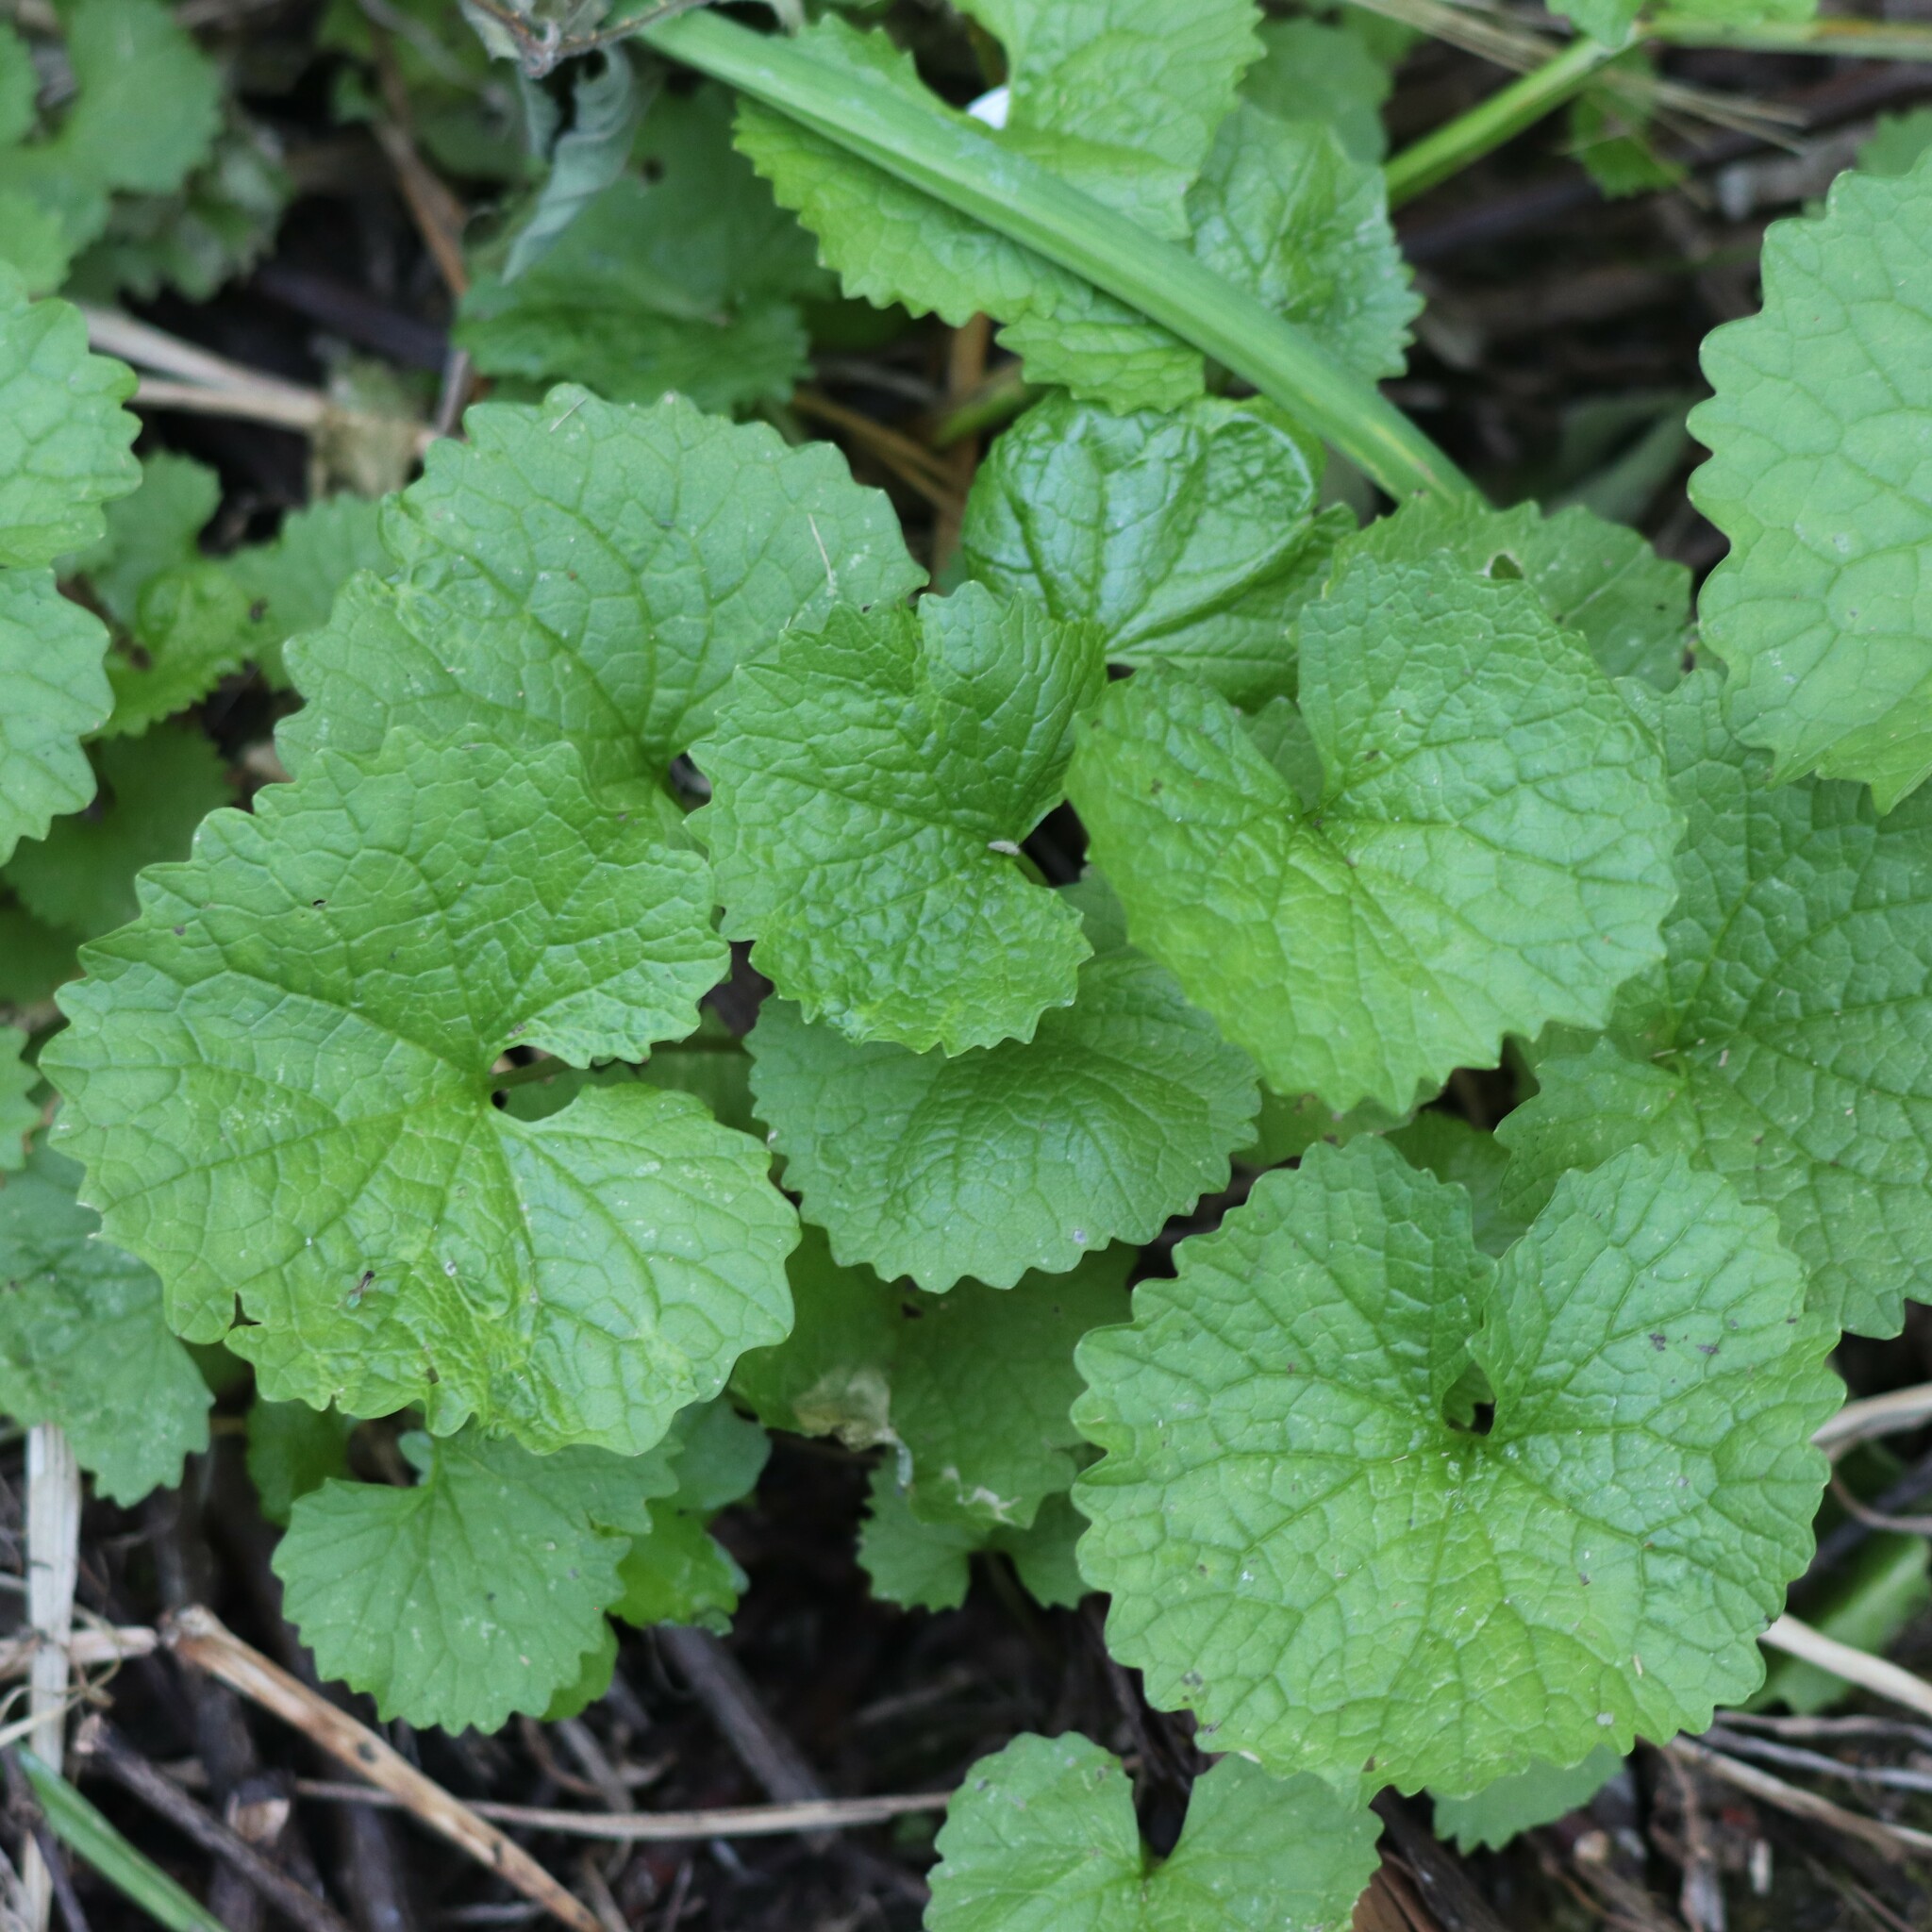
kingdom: Plantae
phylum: Tracheophyta
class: Magnoliopsida
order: Brassicales
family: Brassicaceae
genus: Alliaria
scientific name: Alliaria petiolata
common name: Garlic mustard
